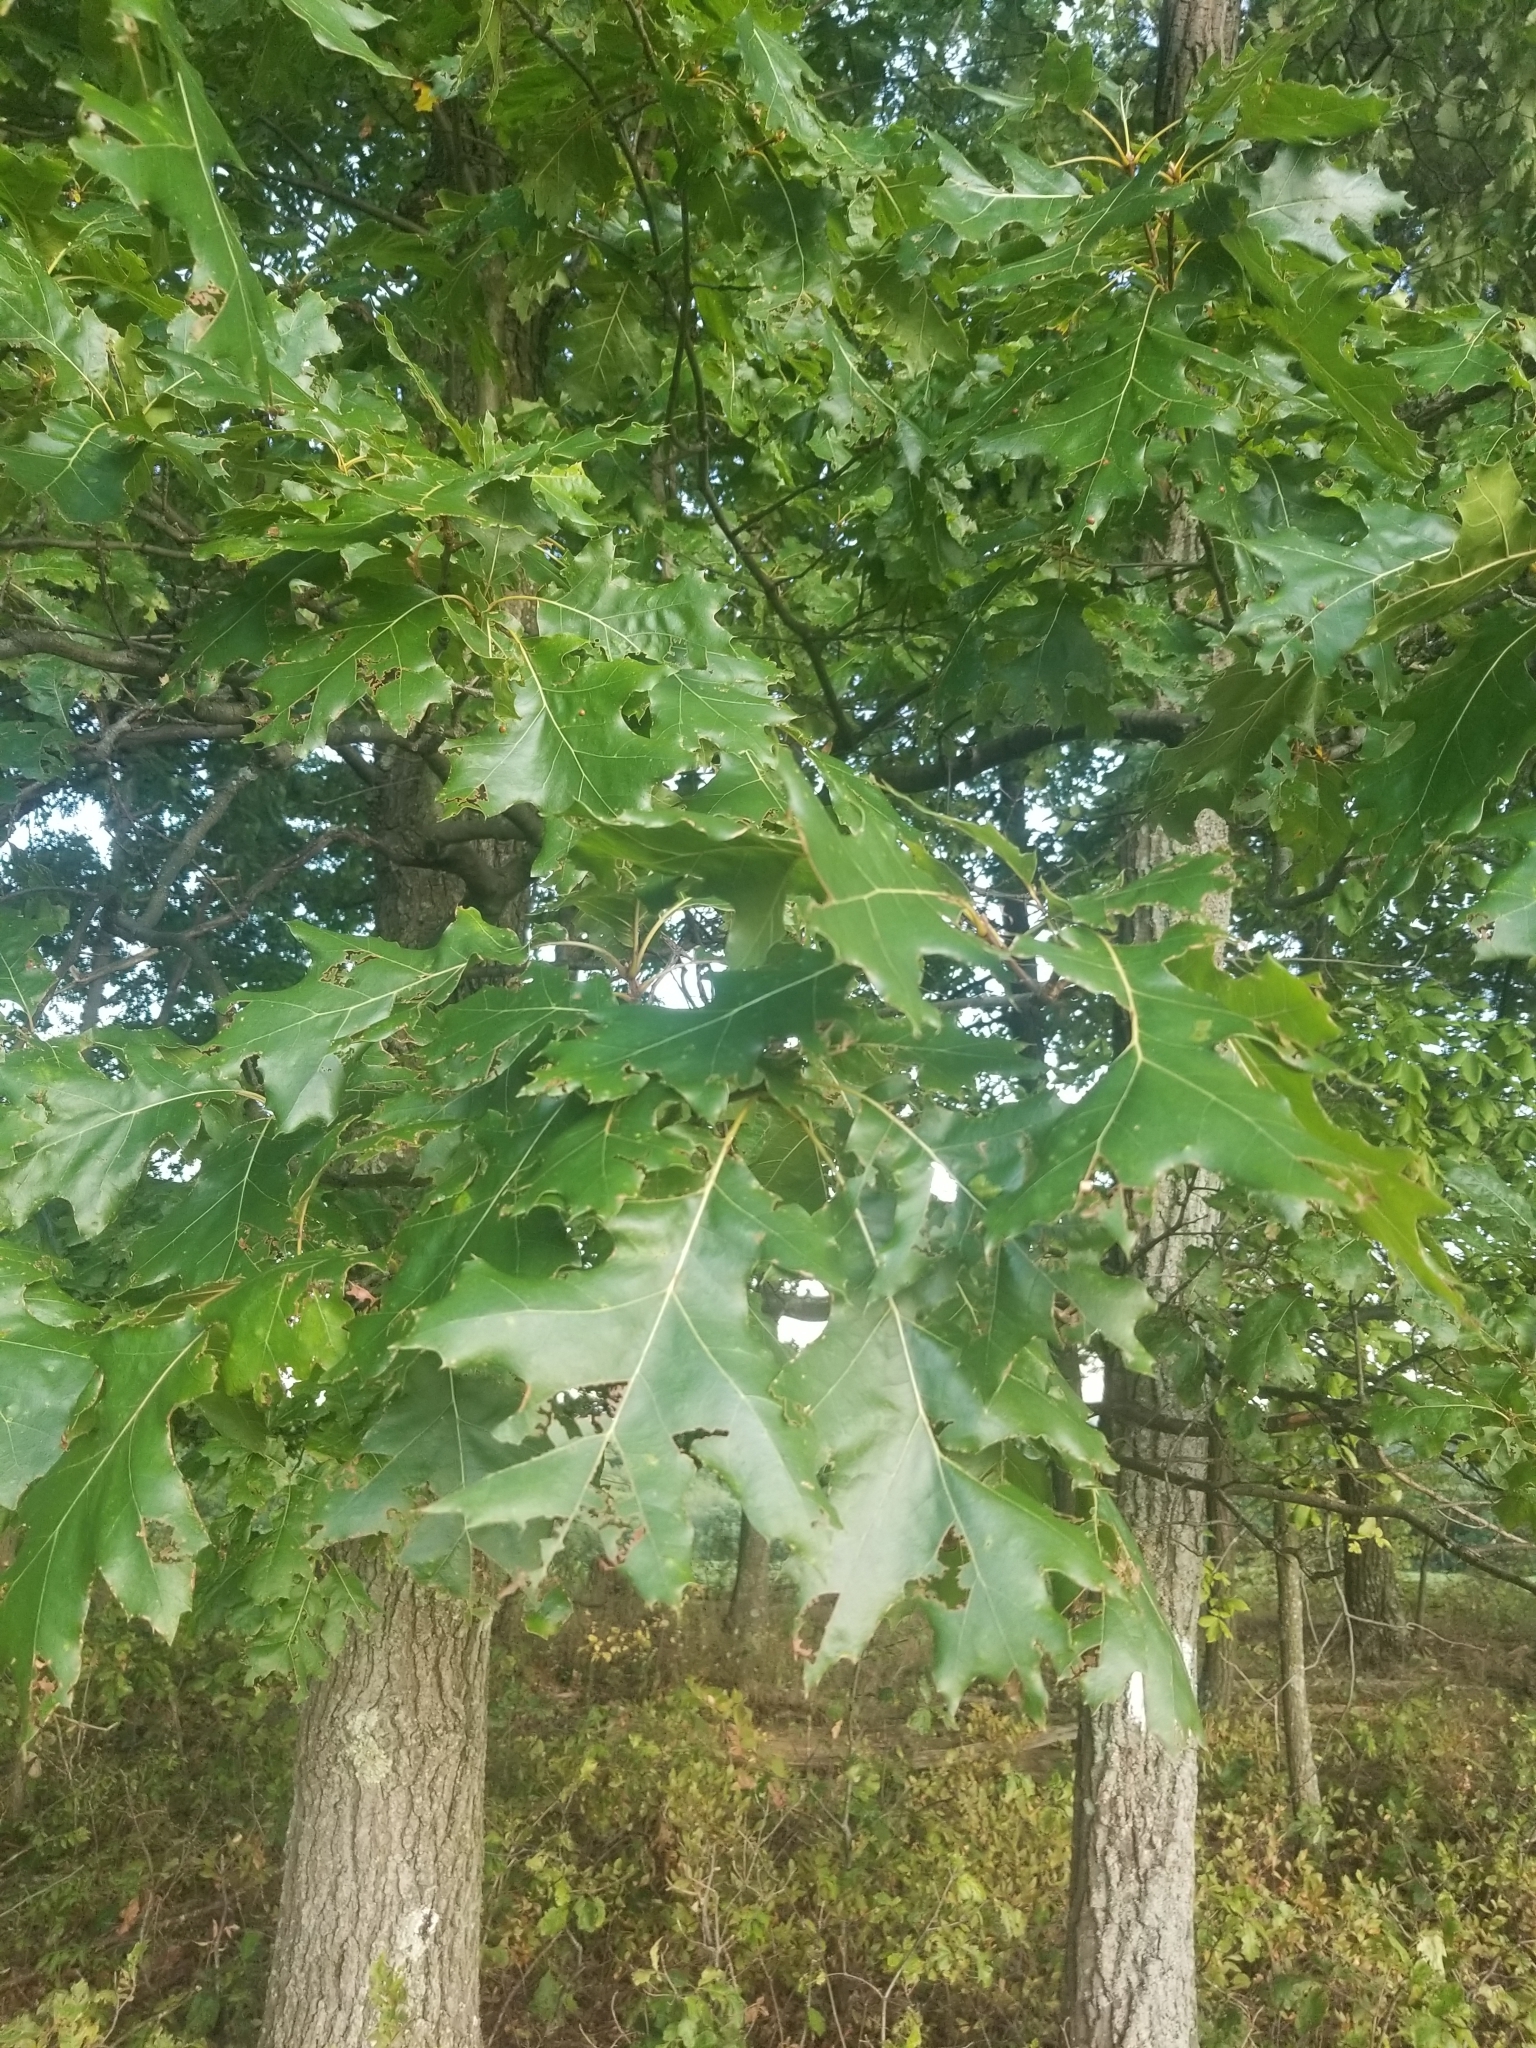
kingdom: Plantae
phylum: Tracheophyta
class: Magnoliopsida
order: Fagales
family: Fagaceae
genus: Quercus
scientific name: Quercus velutina
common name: Black oak
